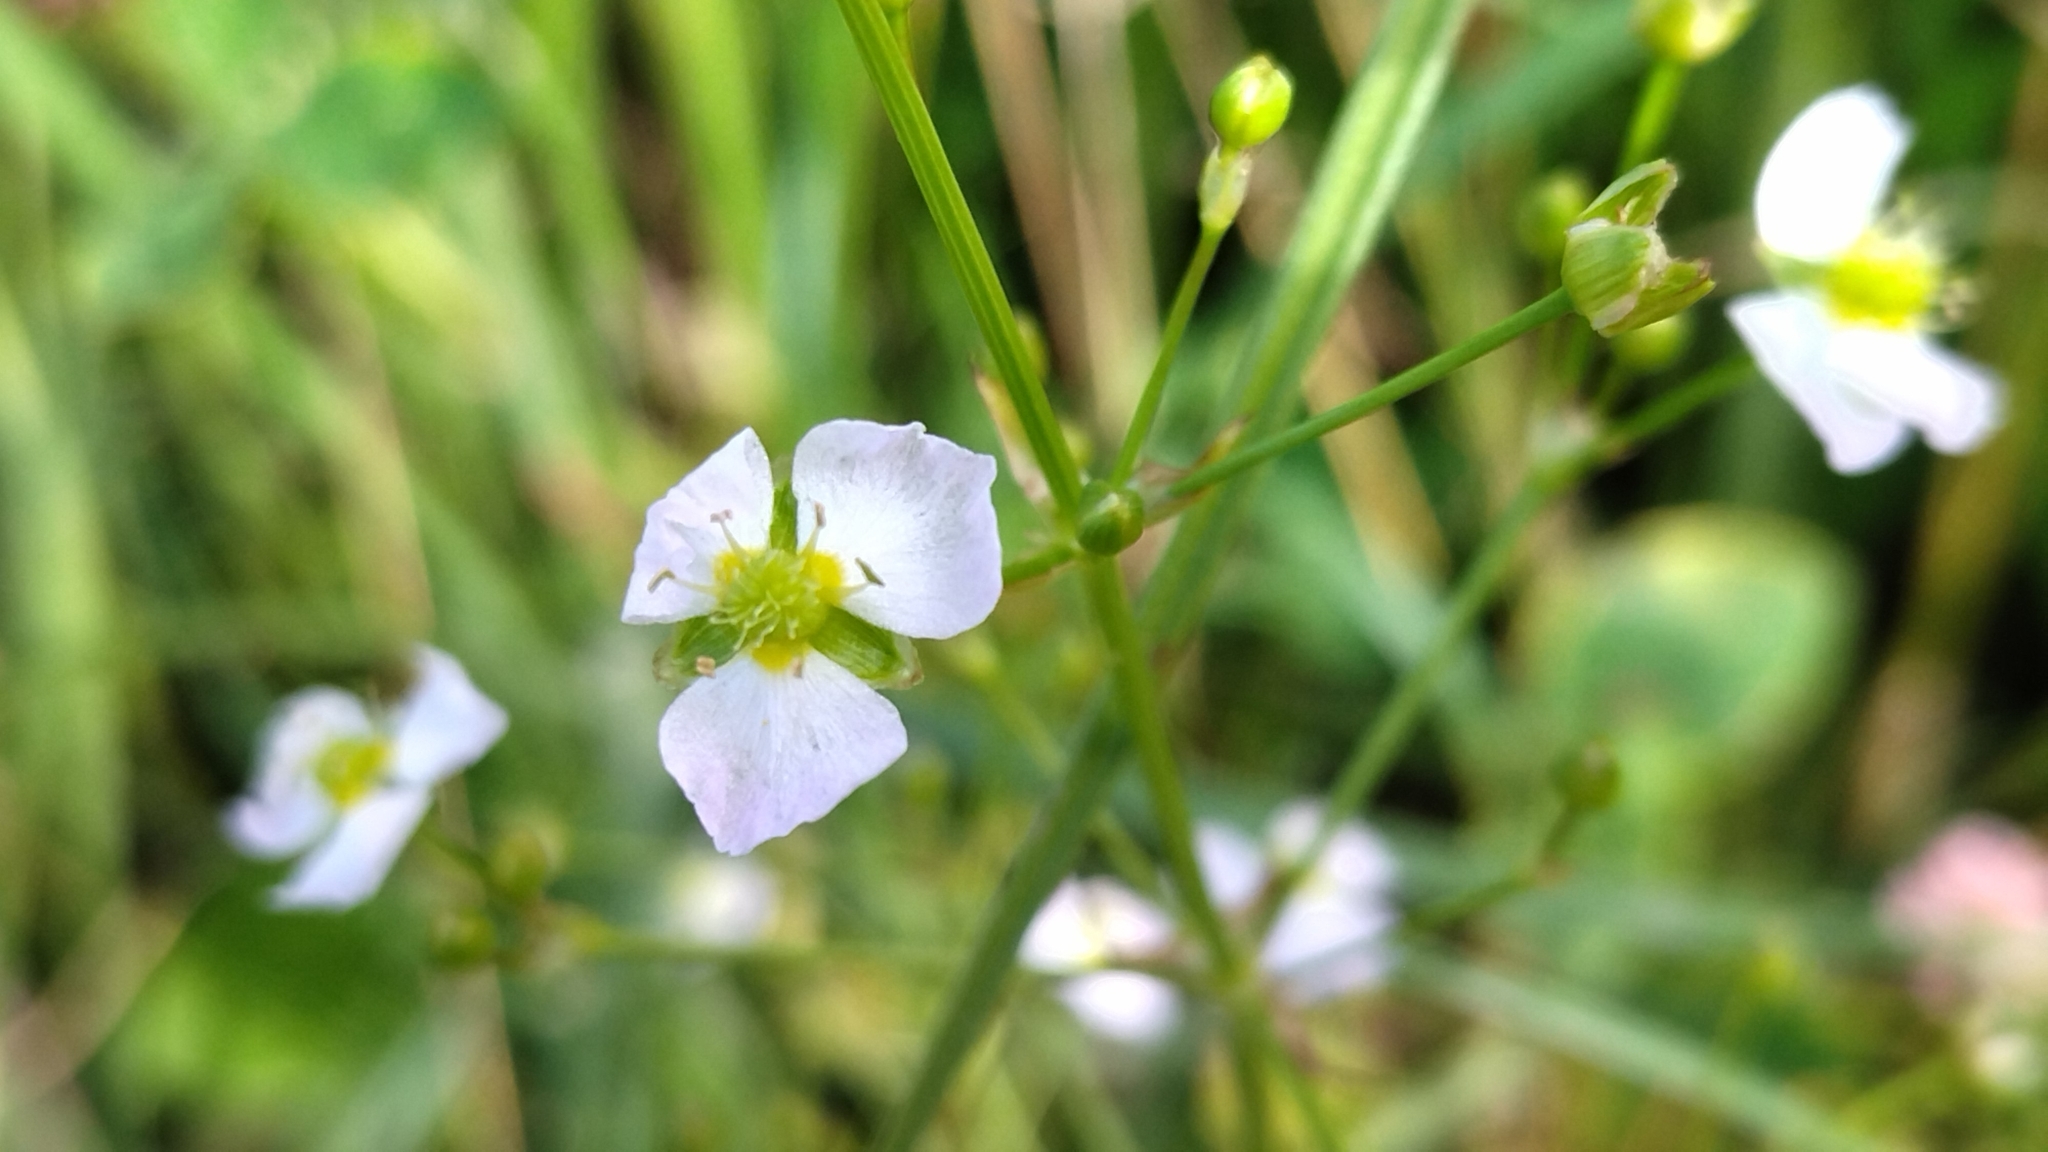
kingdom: Plantae
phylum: Tracheophyta
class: Liliopsida
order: Alismatales
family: Alismataceae
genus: Alisma
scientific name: Alisma plantago-aquatica
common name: Water-plantain
